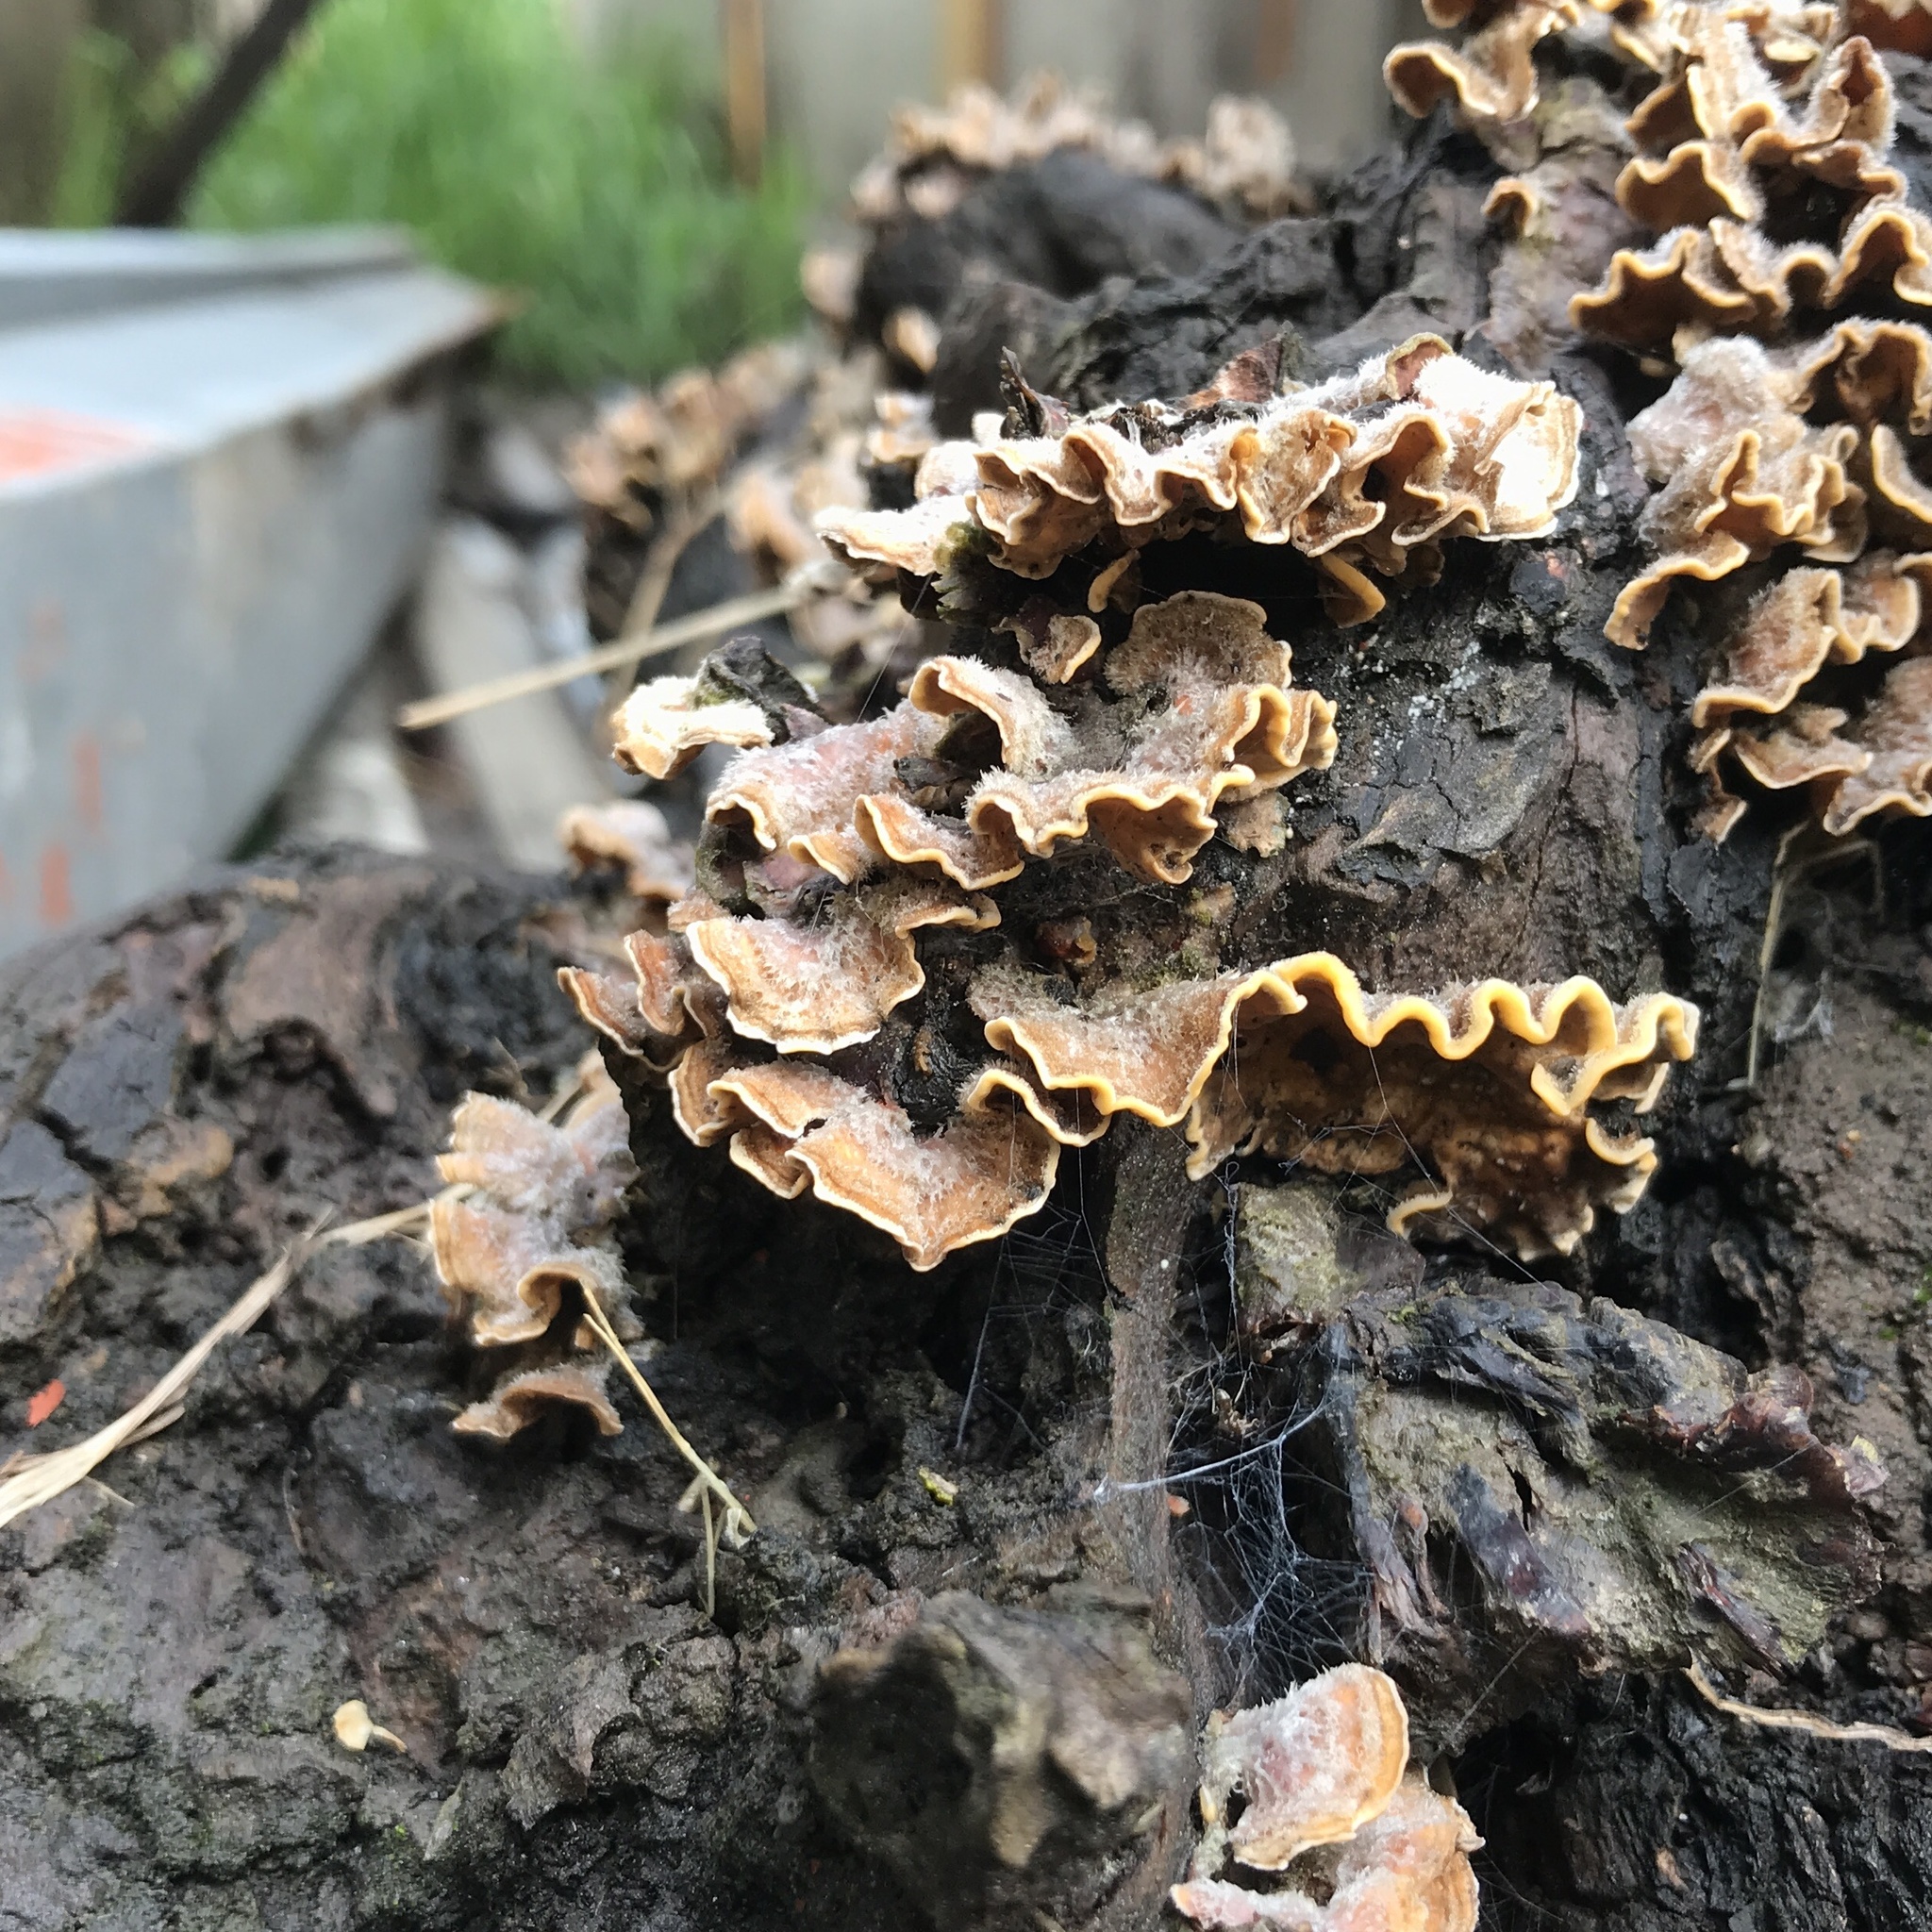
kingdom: Fungi
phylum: Basidiomycota
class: Agaricomycetes
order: Russulales
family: Stereaceae
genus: Stereum
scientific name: Stereum hirsutum
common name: Hairy curtain crust
